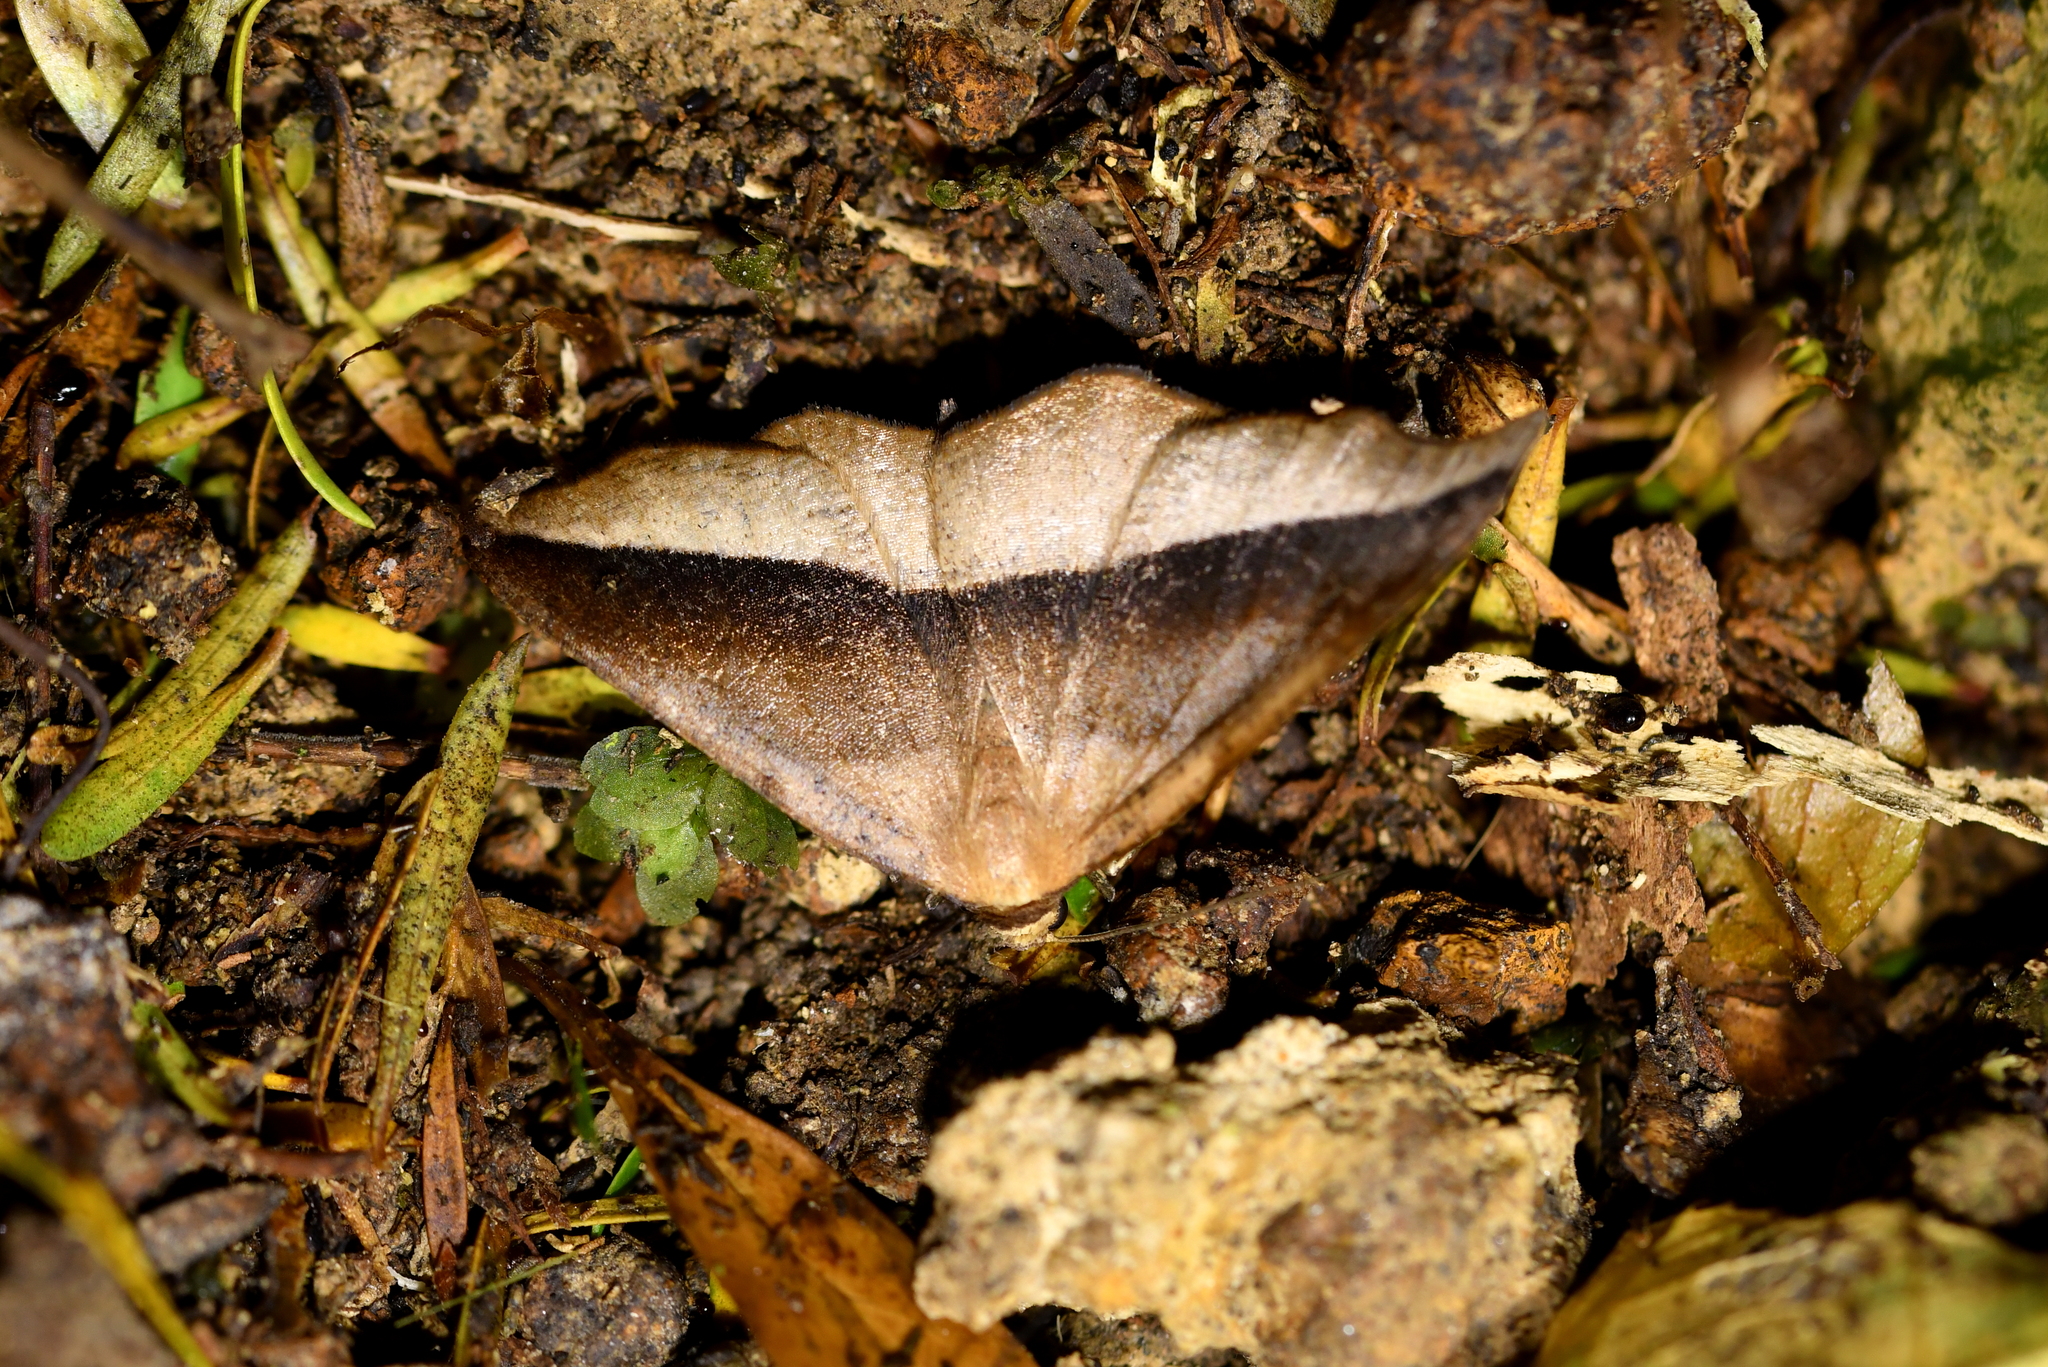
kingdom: Animalia
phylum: Arthropoda
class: Insecta
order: Lepidoptera
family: Geometridae
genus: Sarisa
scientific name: Sarisa muriferata
